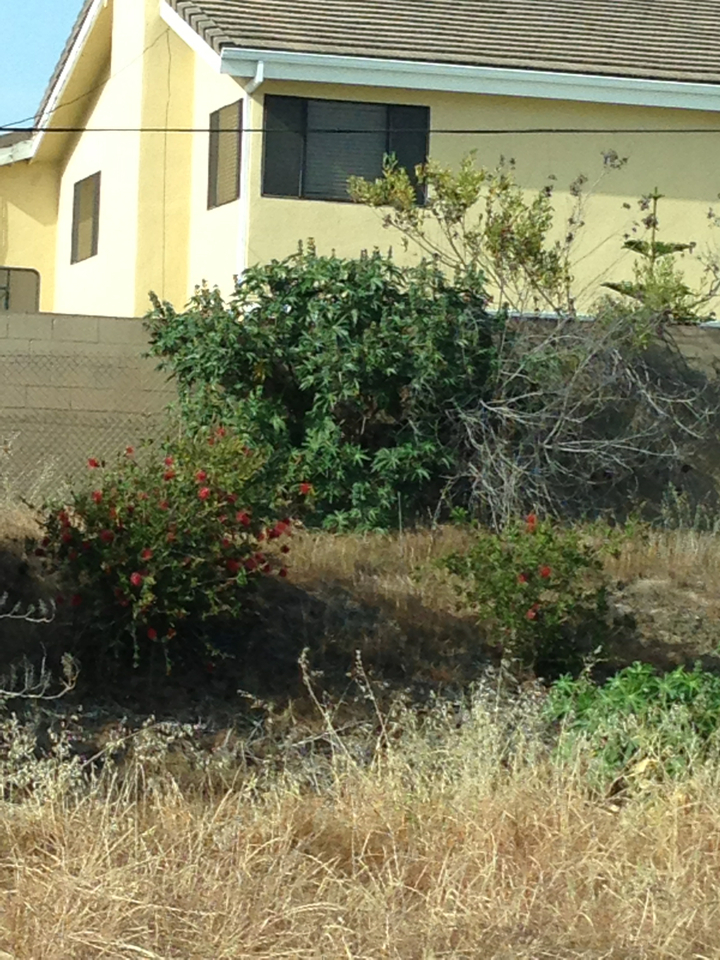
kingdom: Plantae
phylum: Tracheophyta
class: Magnoliopsida
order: Malpighiales
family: Euphorbiaceae
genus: Ricinus
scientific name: Ricinus communis
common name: Castor-oil-plant
